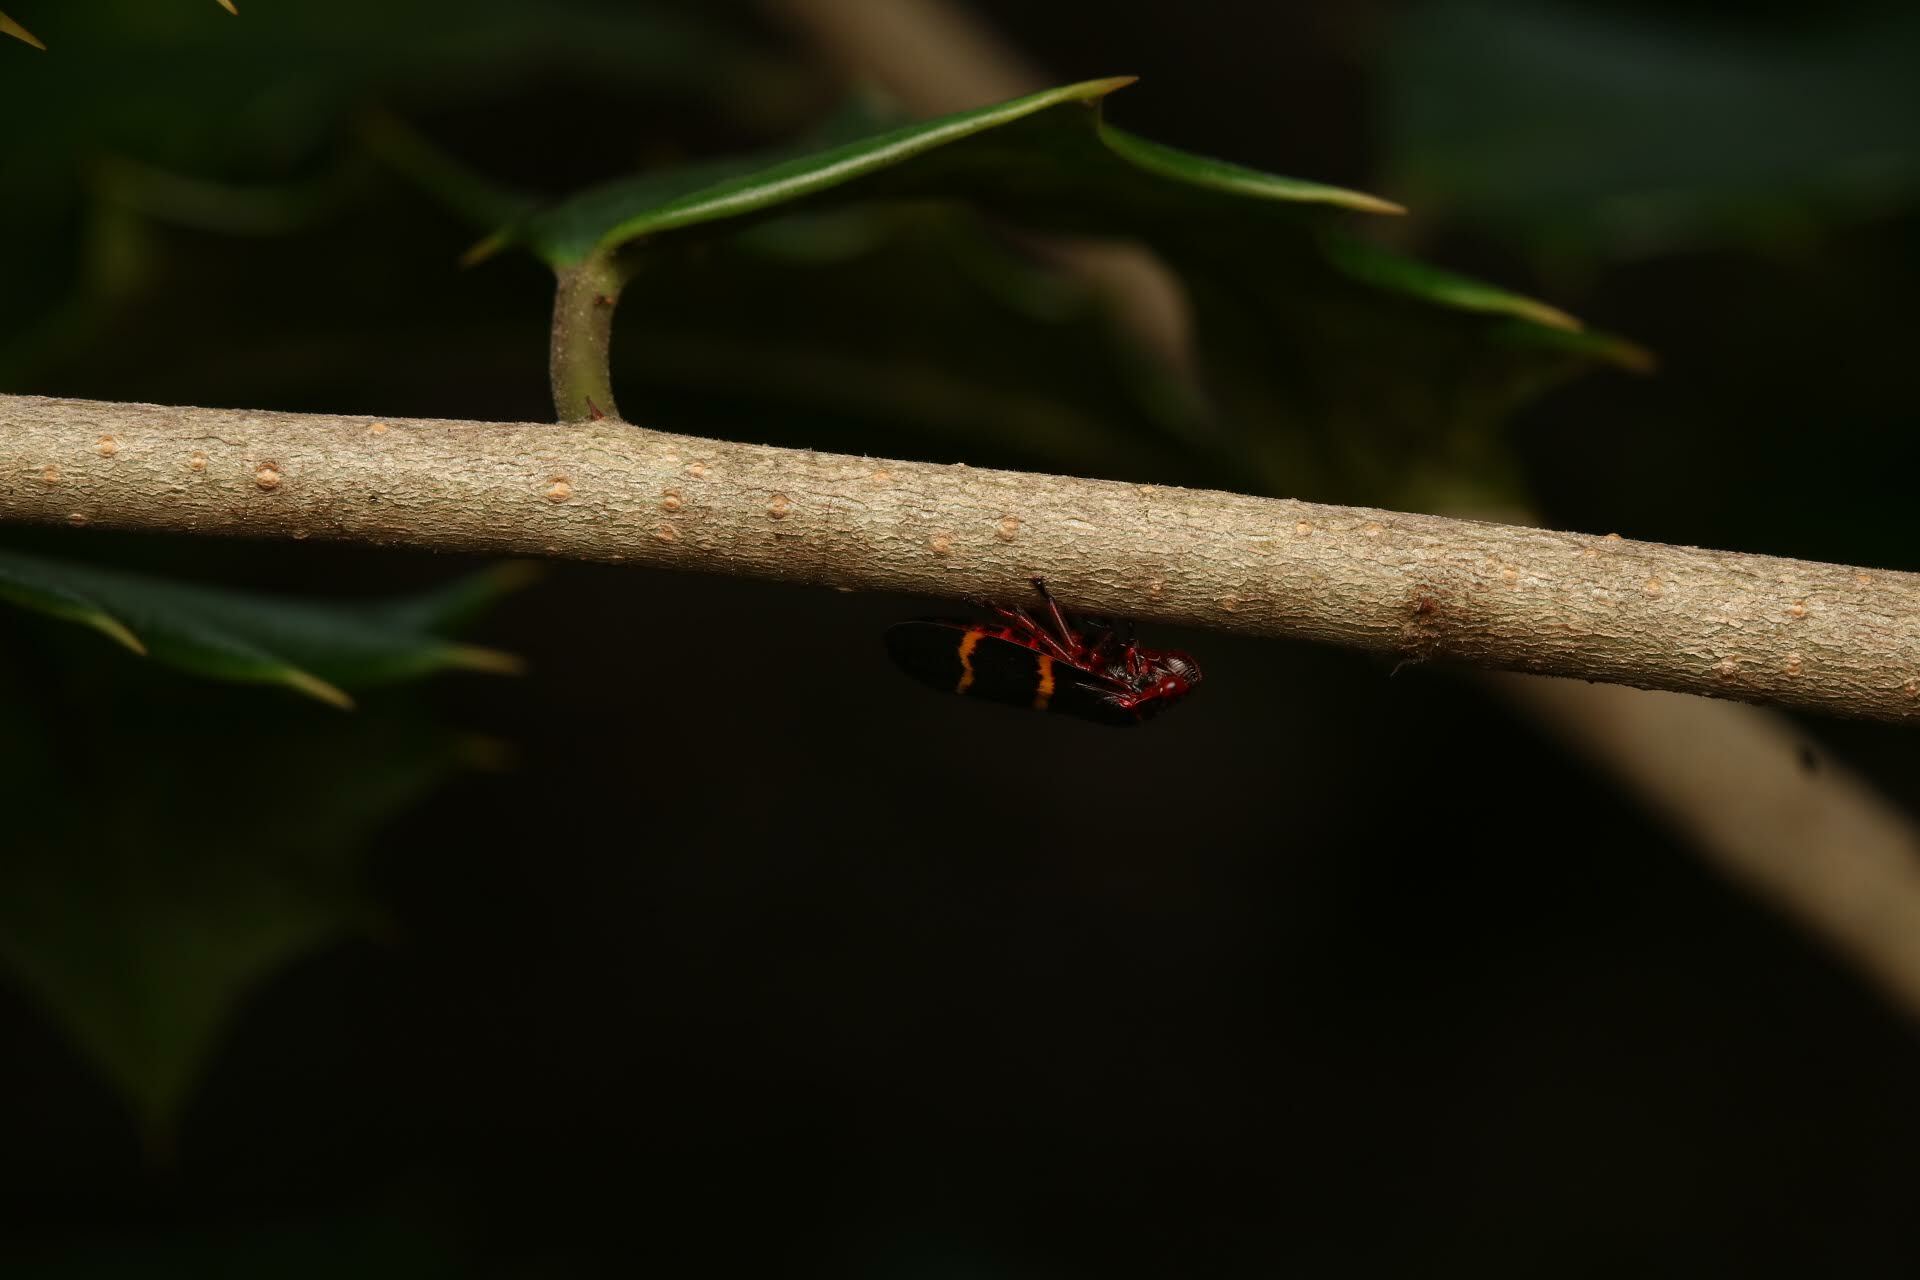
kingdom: Animalia
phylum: Arthropoda
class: Insecta
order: Hemiptera
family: Cercopidae
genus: Prosapia
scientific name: Prosapia bicincta
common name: Twolined spittlebug
